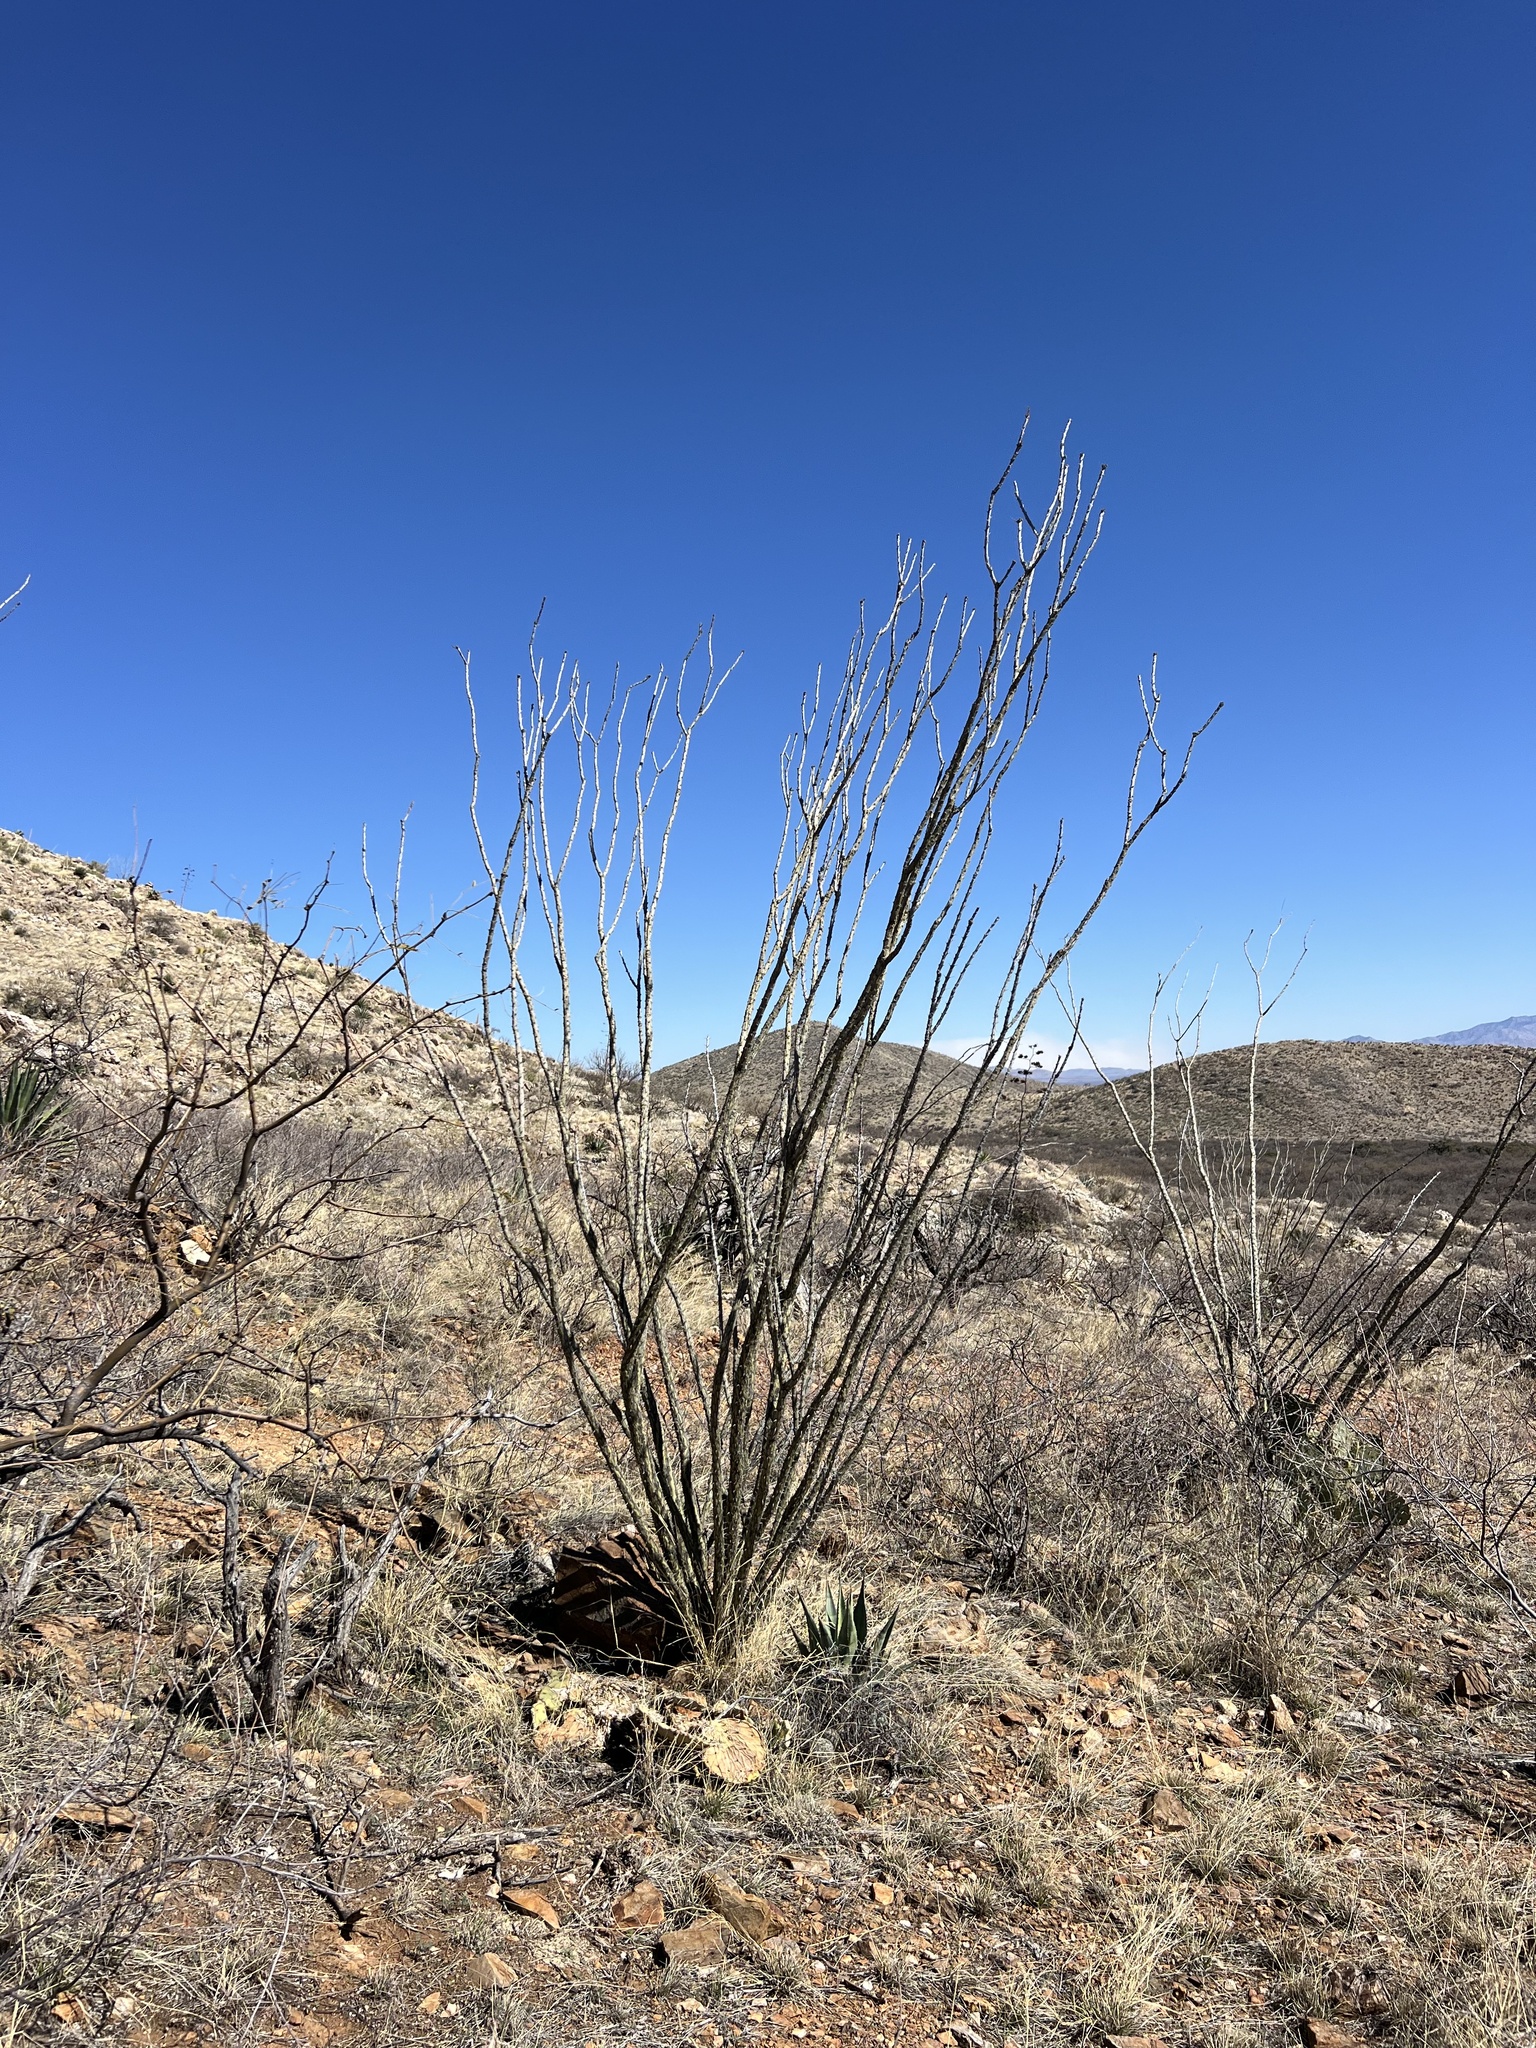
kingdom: Plantae
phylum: Tracheophyta
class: Magnoliopsida
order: Ericales
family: Fouquieriaceae
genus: Fouquieria
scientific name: Fouquieria splendens
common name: Vine-cactus
